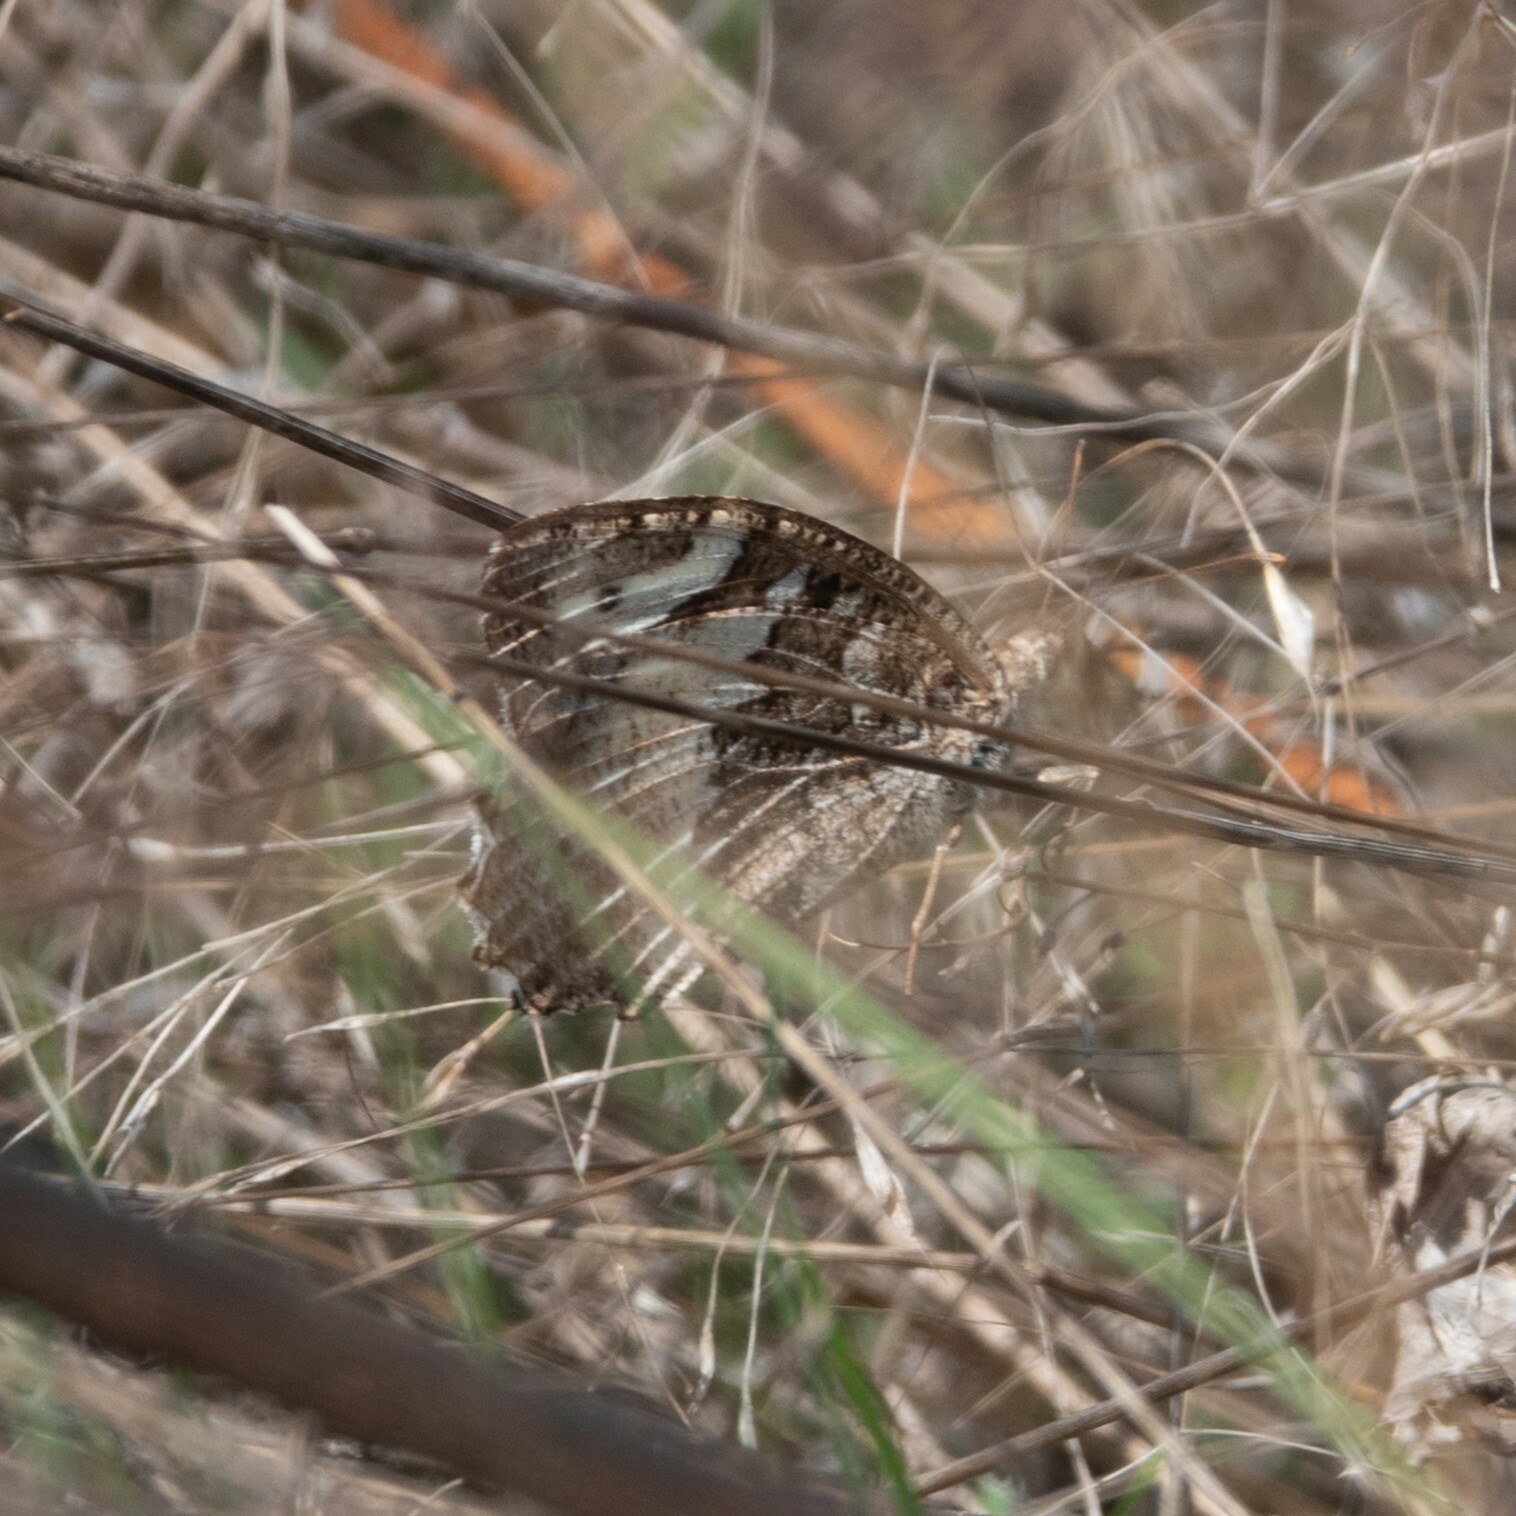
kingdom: Animalia
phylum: Arthropoda
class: Insecta
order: Lepidoptera
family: Lycaenidae
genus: Loweia
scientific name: Loweia tityrus
